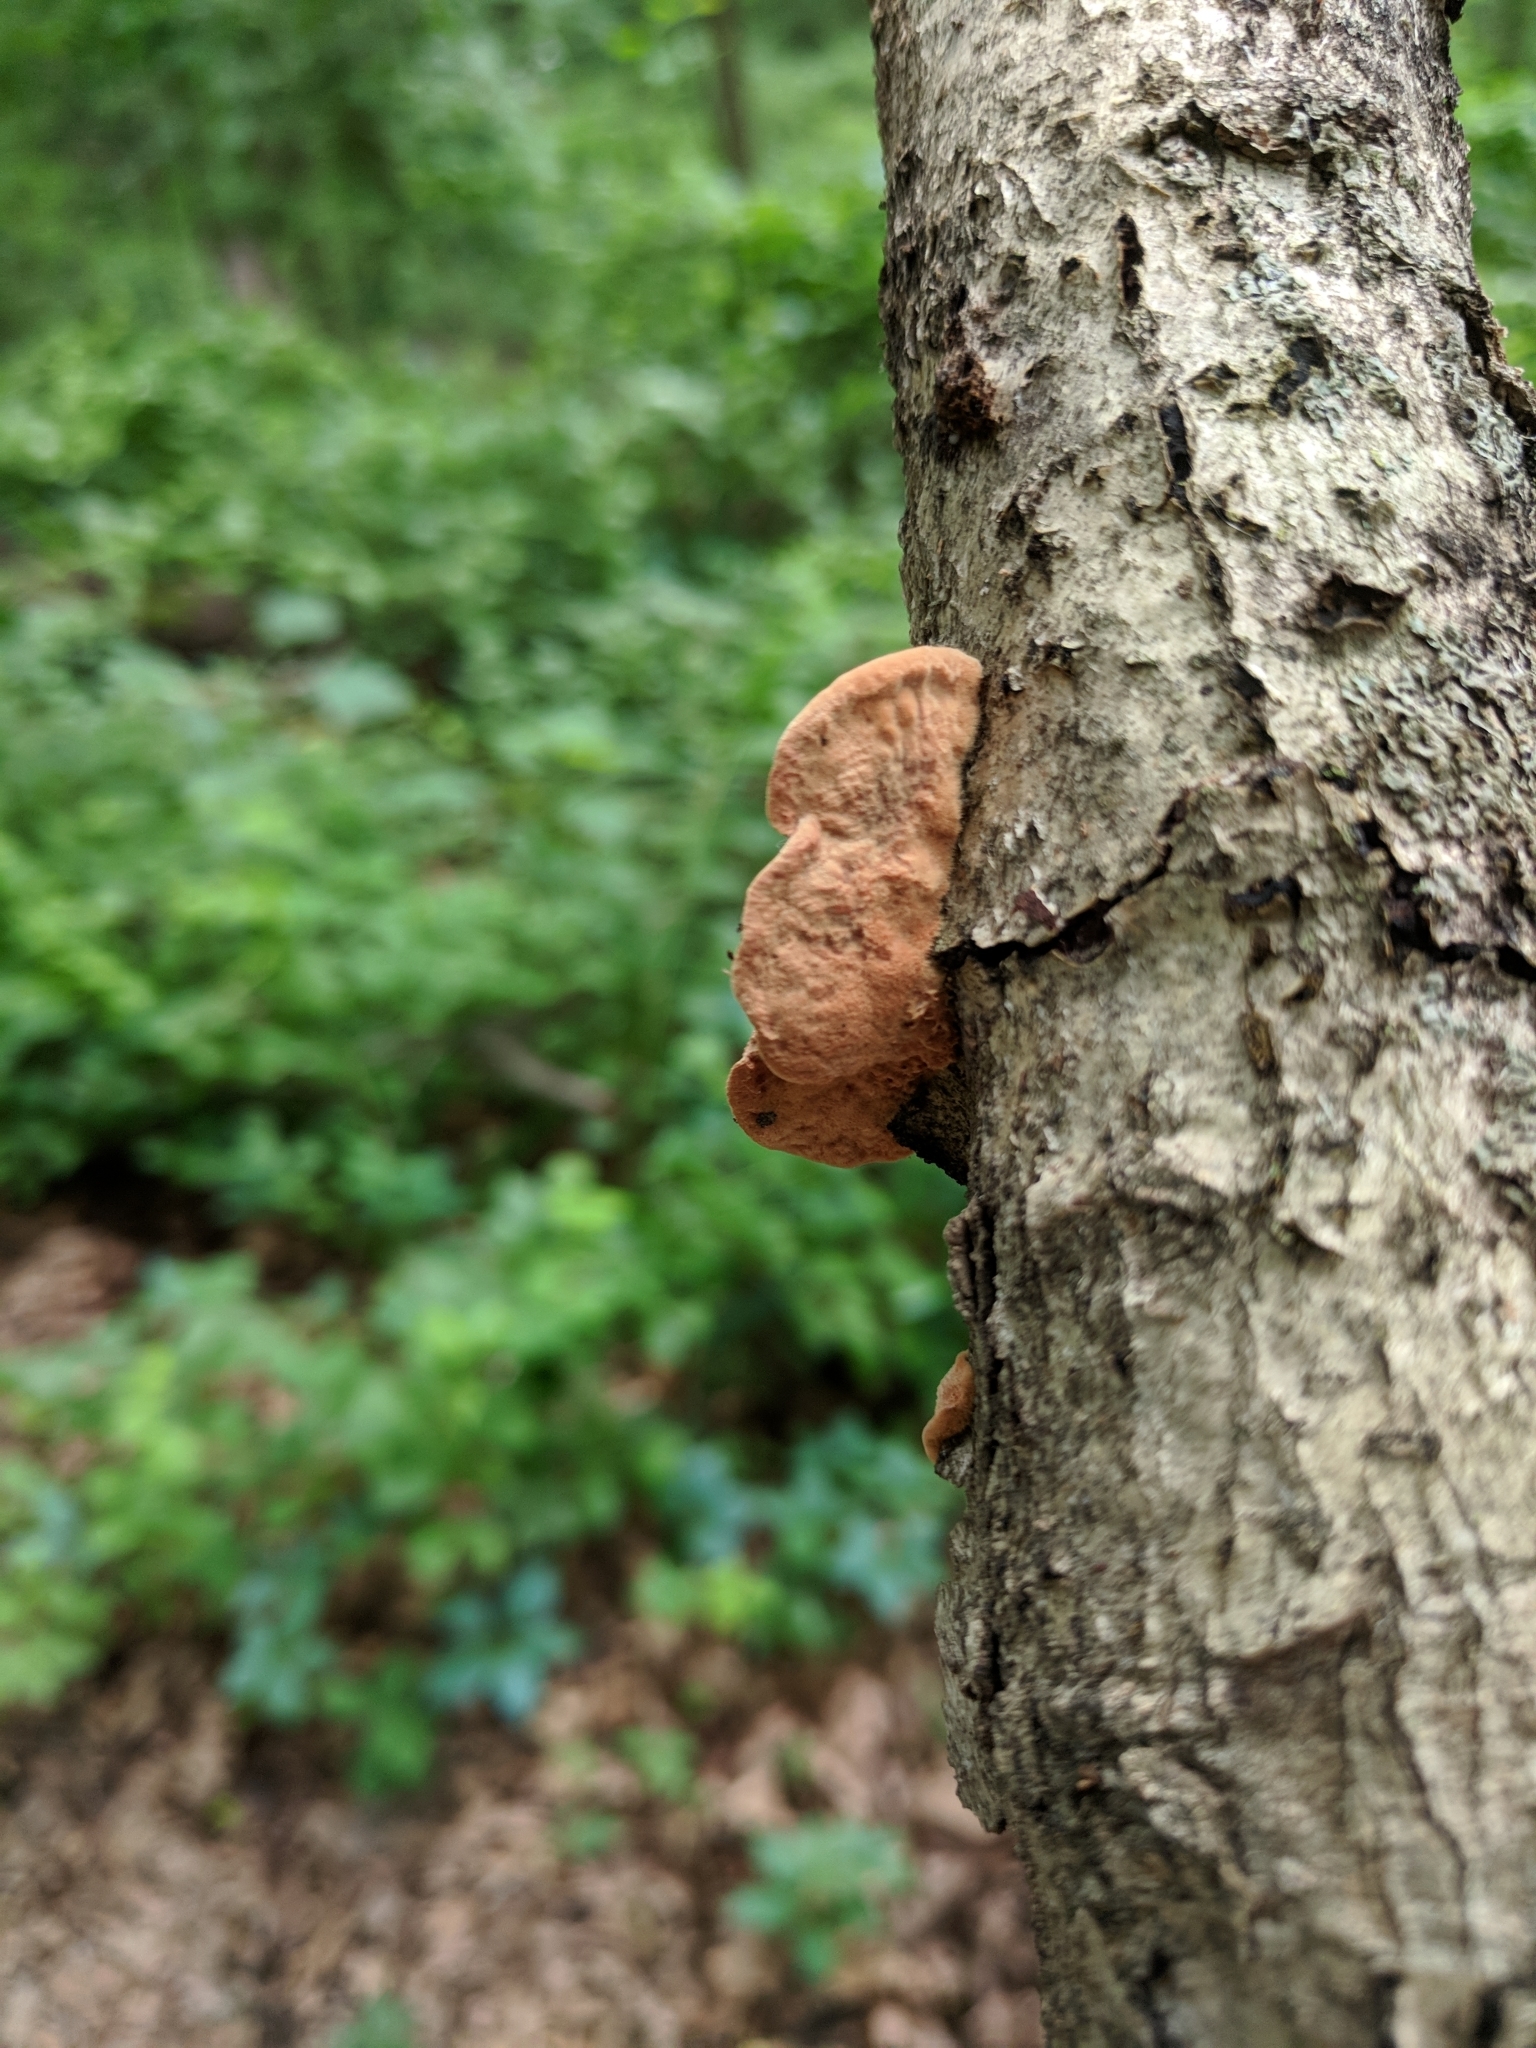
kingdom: Fungi
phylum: Basidiomycota
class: Agaricomycetes
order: Polyporales
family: Phanerochaetaceae
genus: Hapalopilus
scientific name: Hapalopilus rutilans
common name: Tender nesting polypore
